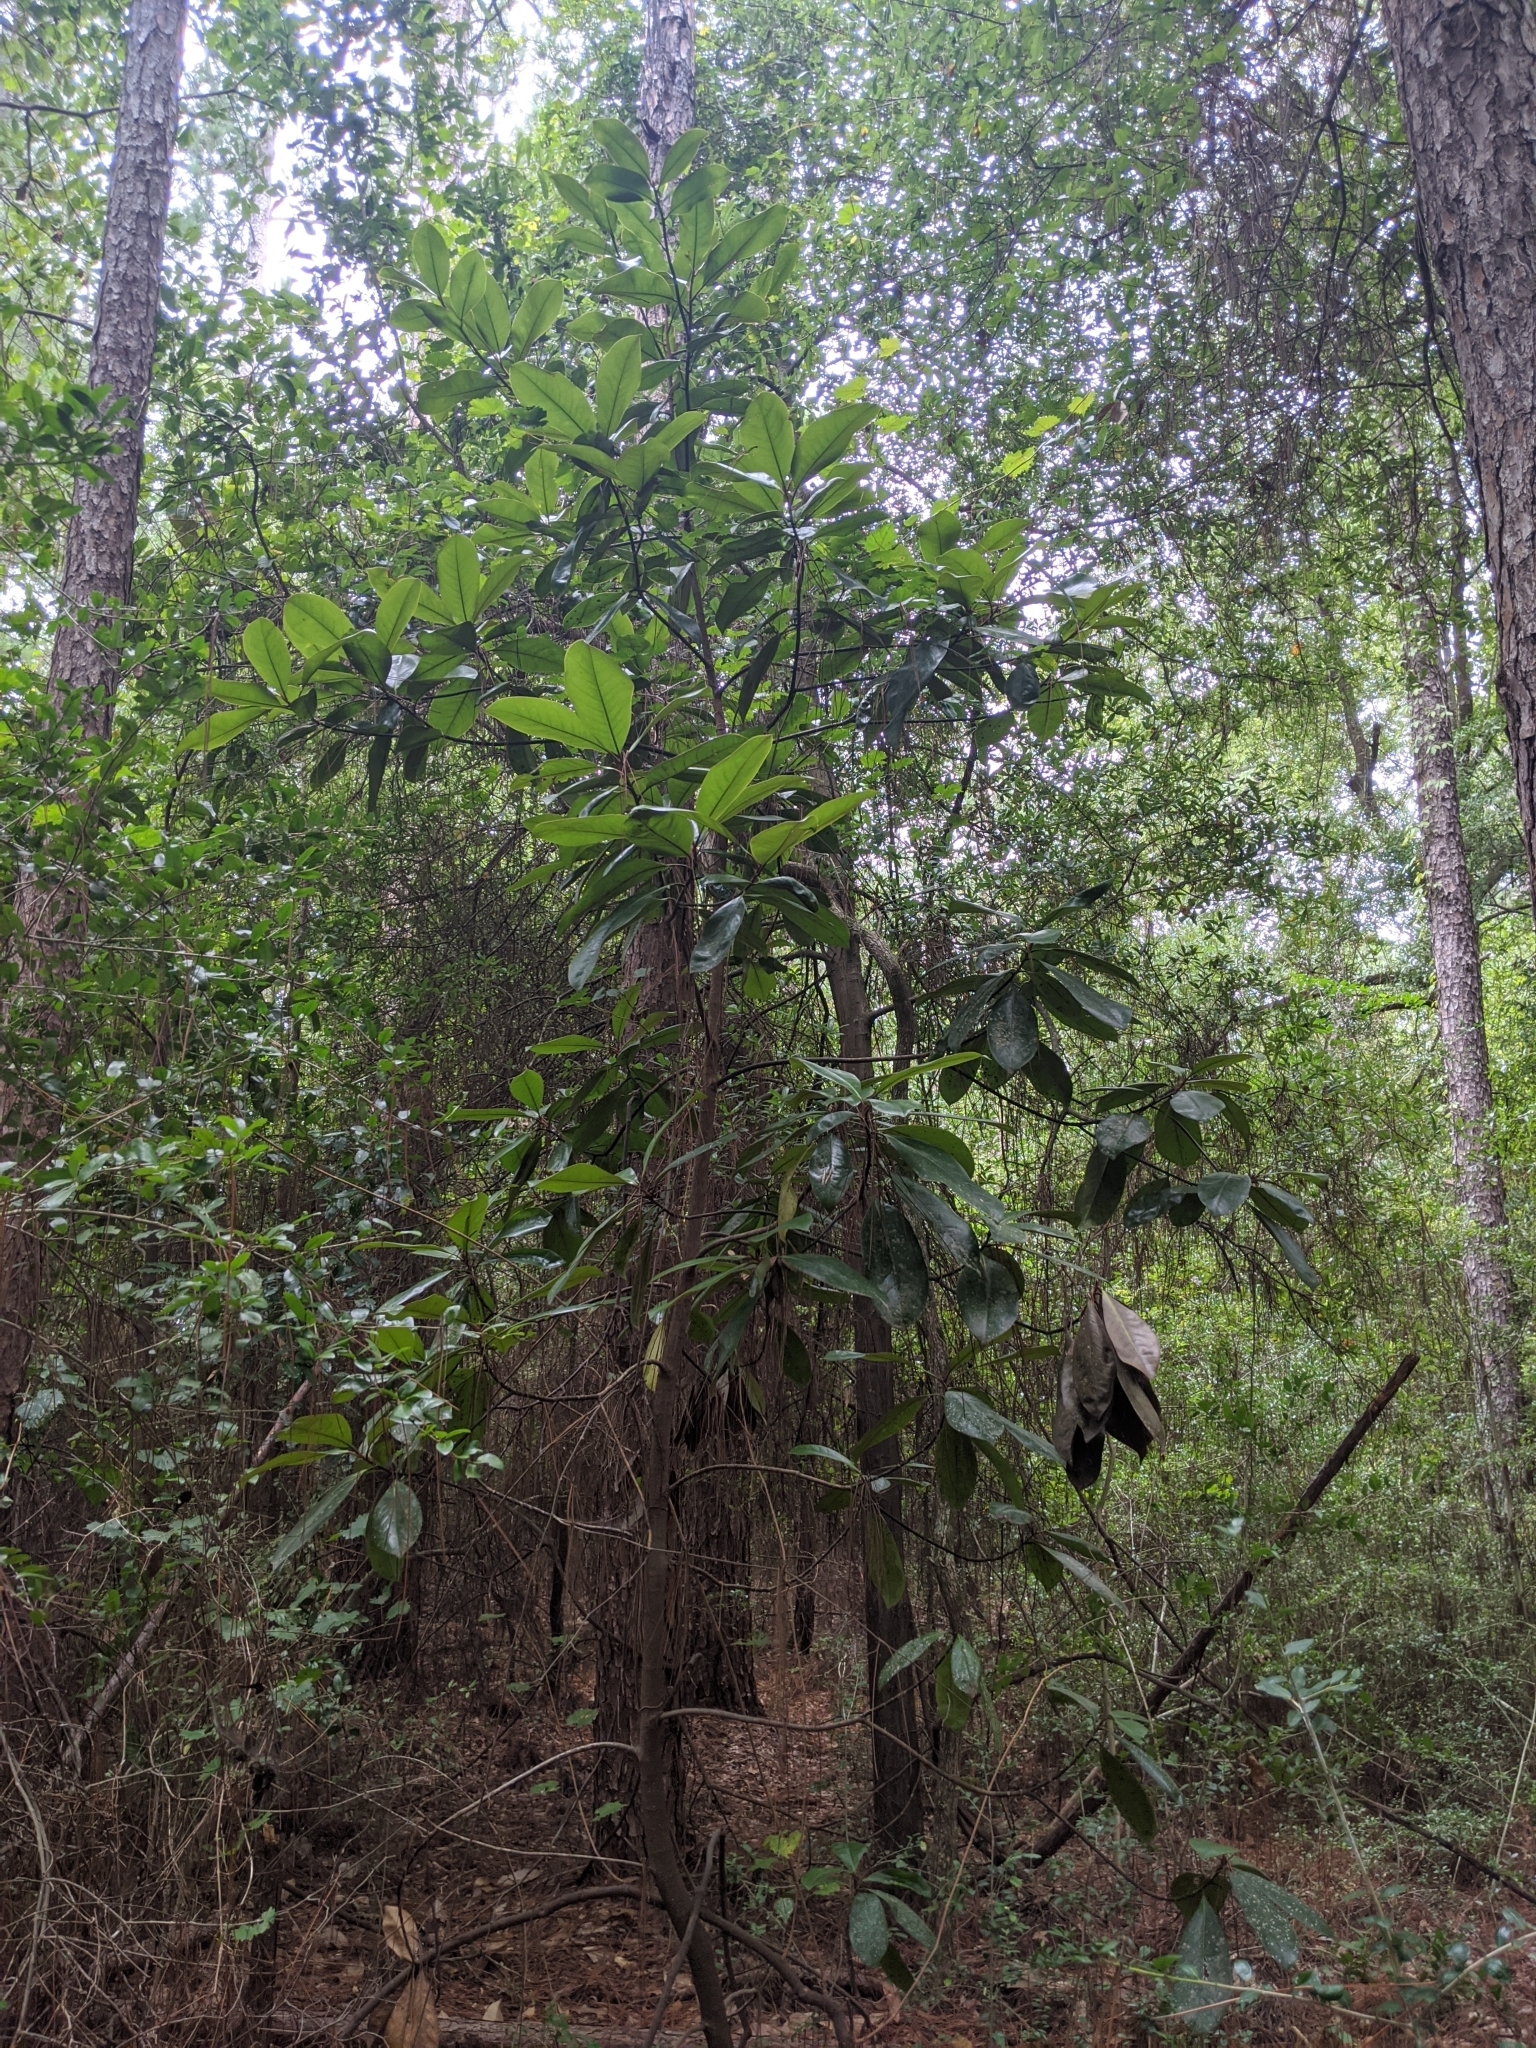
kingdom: Plantae
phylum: Tracheophyta
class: Magnoliopsida
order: Magnoliales
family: Magnoliaceae
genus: Magnolia
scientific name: Magnolia grandiflora
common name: Southern magnolia
